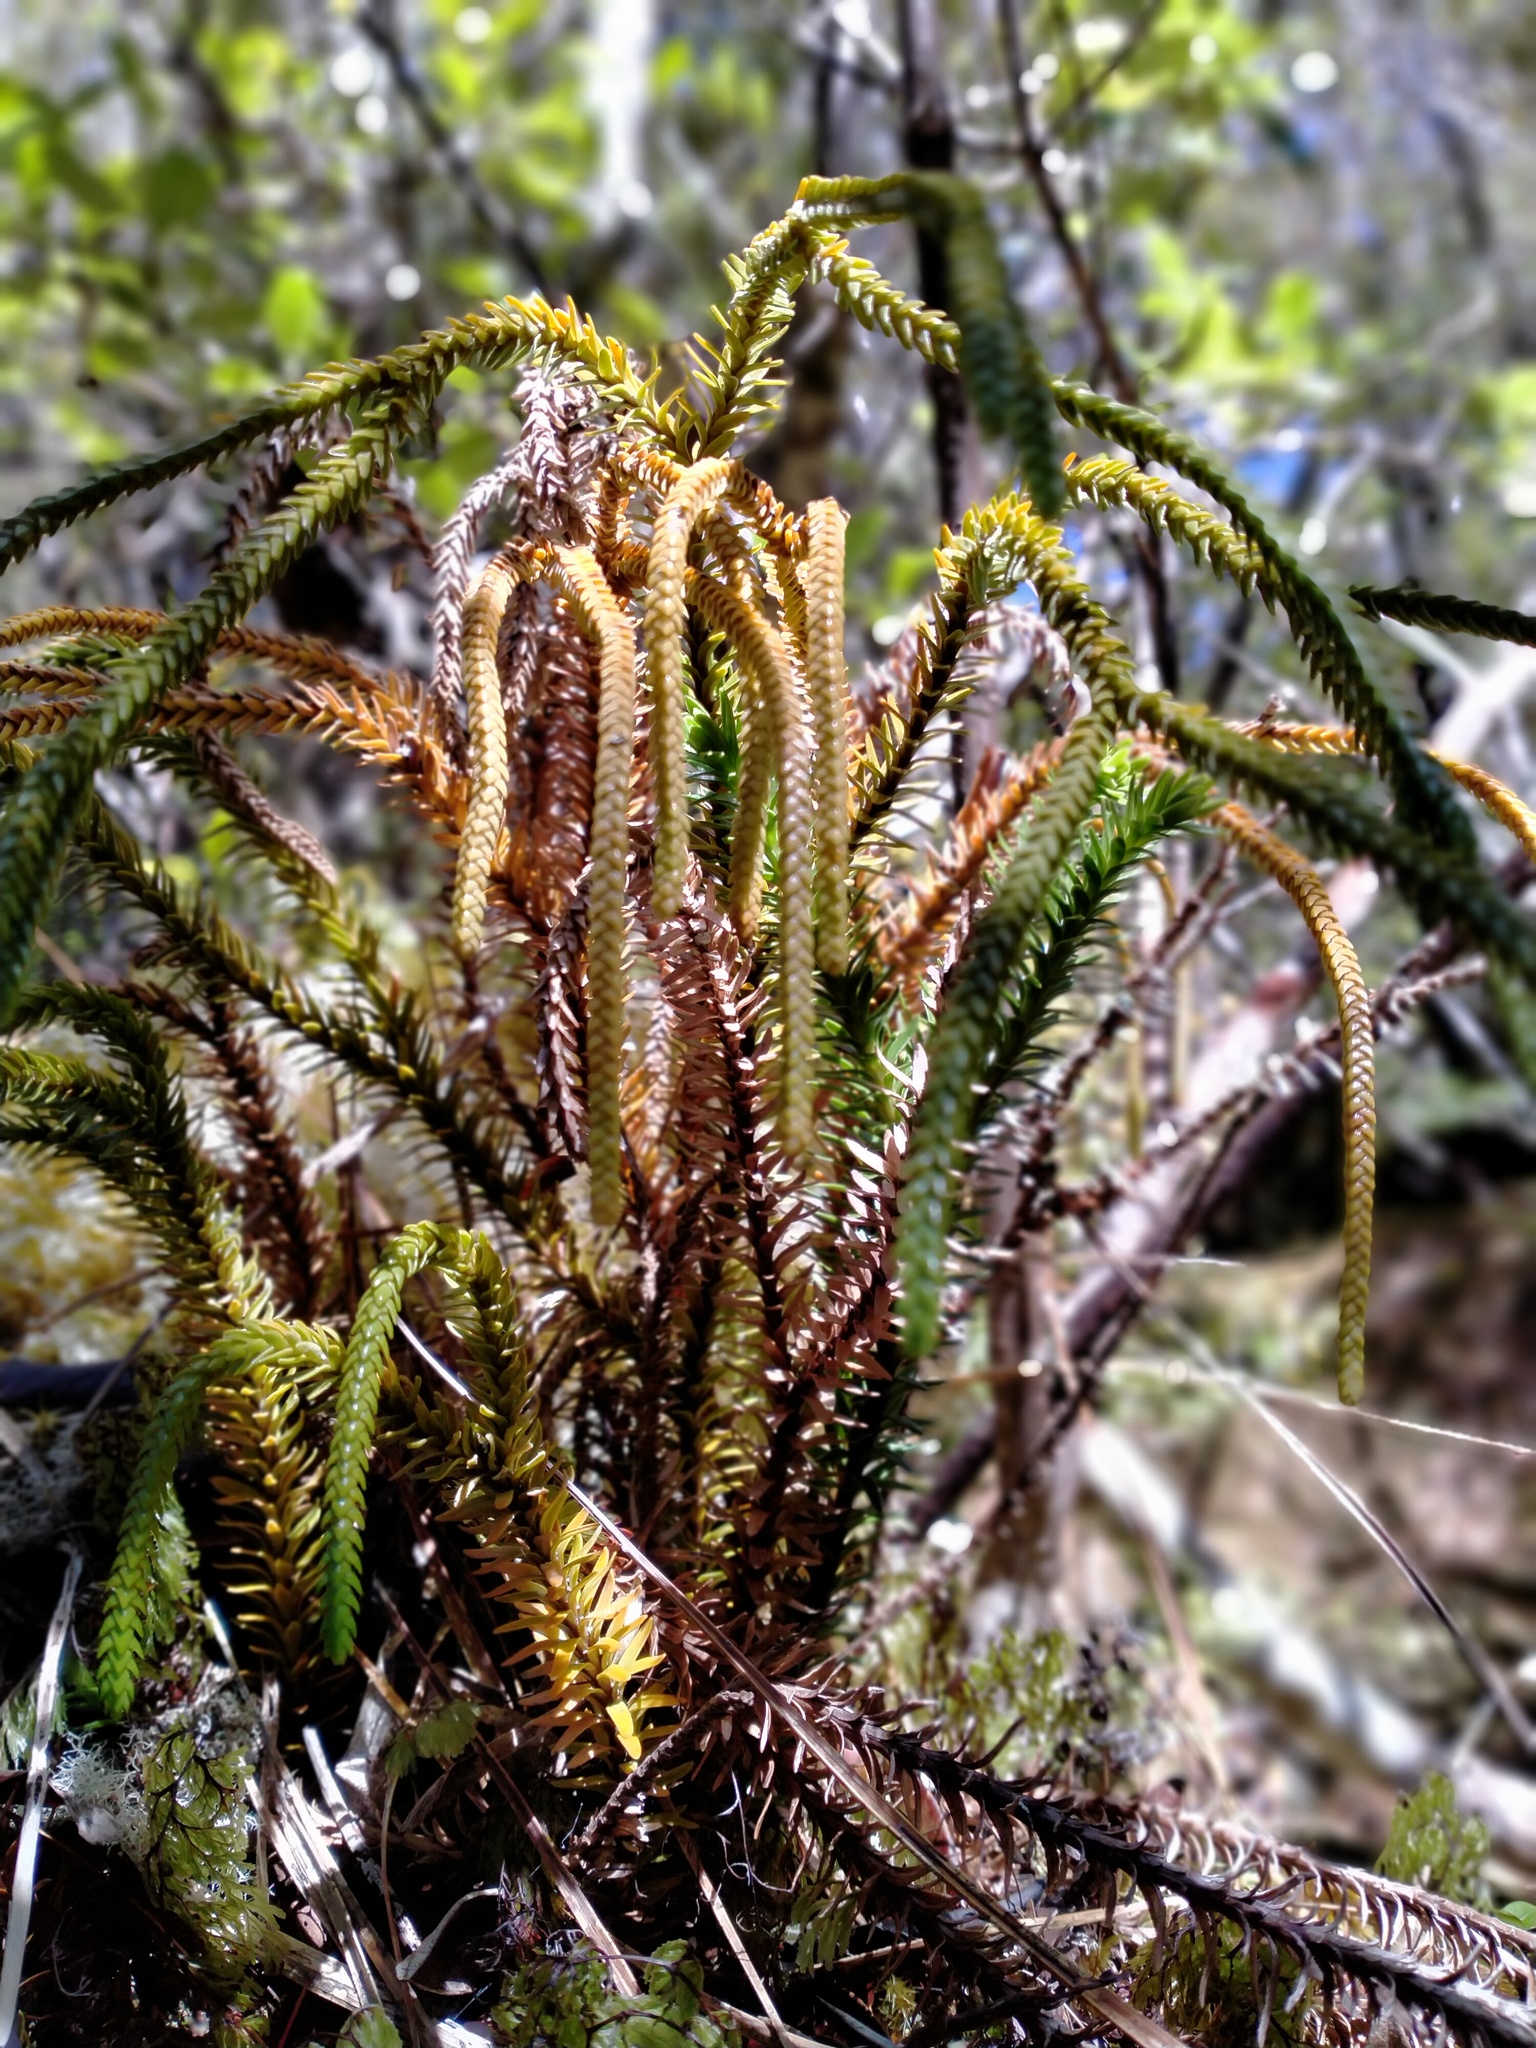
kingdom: Plantae
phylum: Tracheophyta
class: Lycopodiopsida
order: Lycopodiales
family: Lycopodiaceae
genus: Phlegmariurus
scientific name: Phlegmariurus varius
